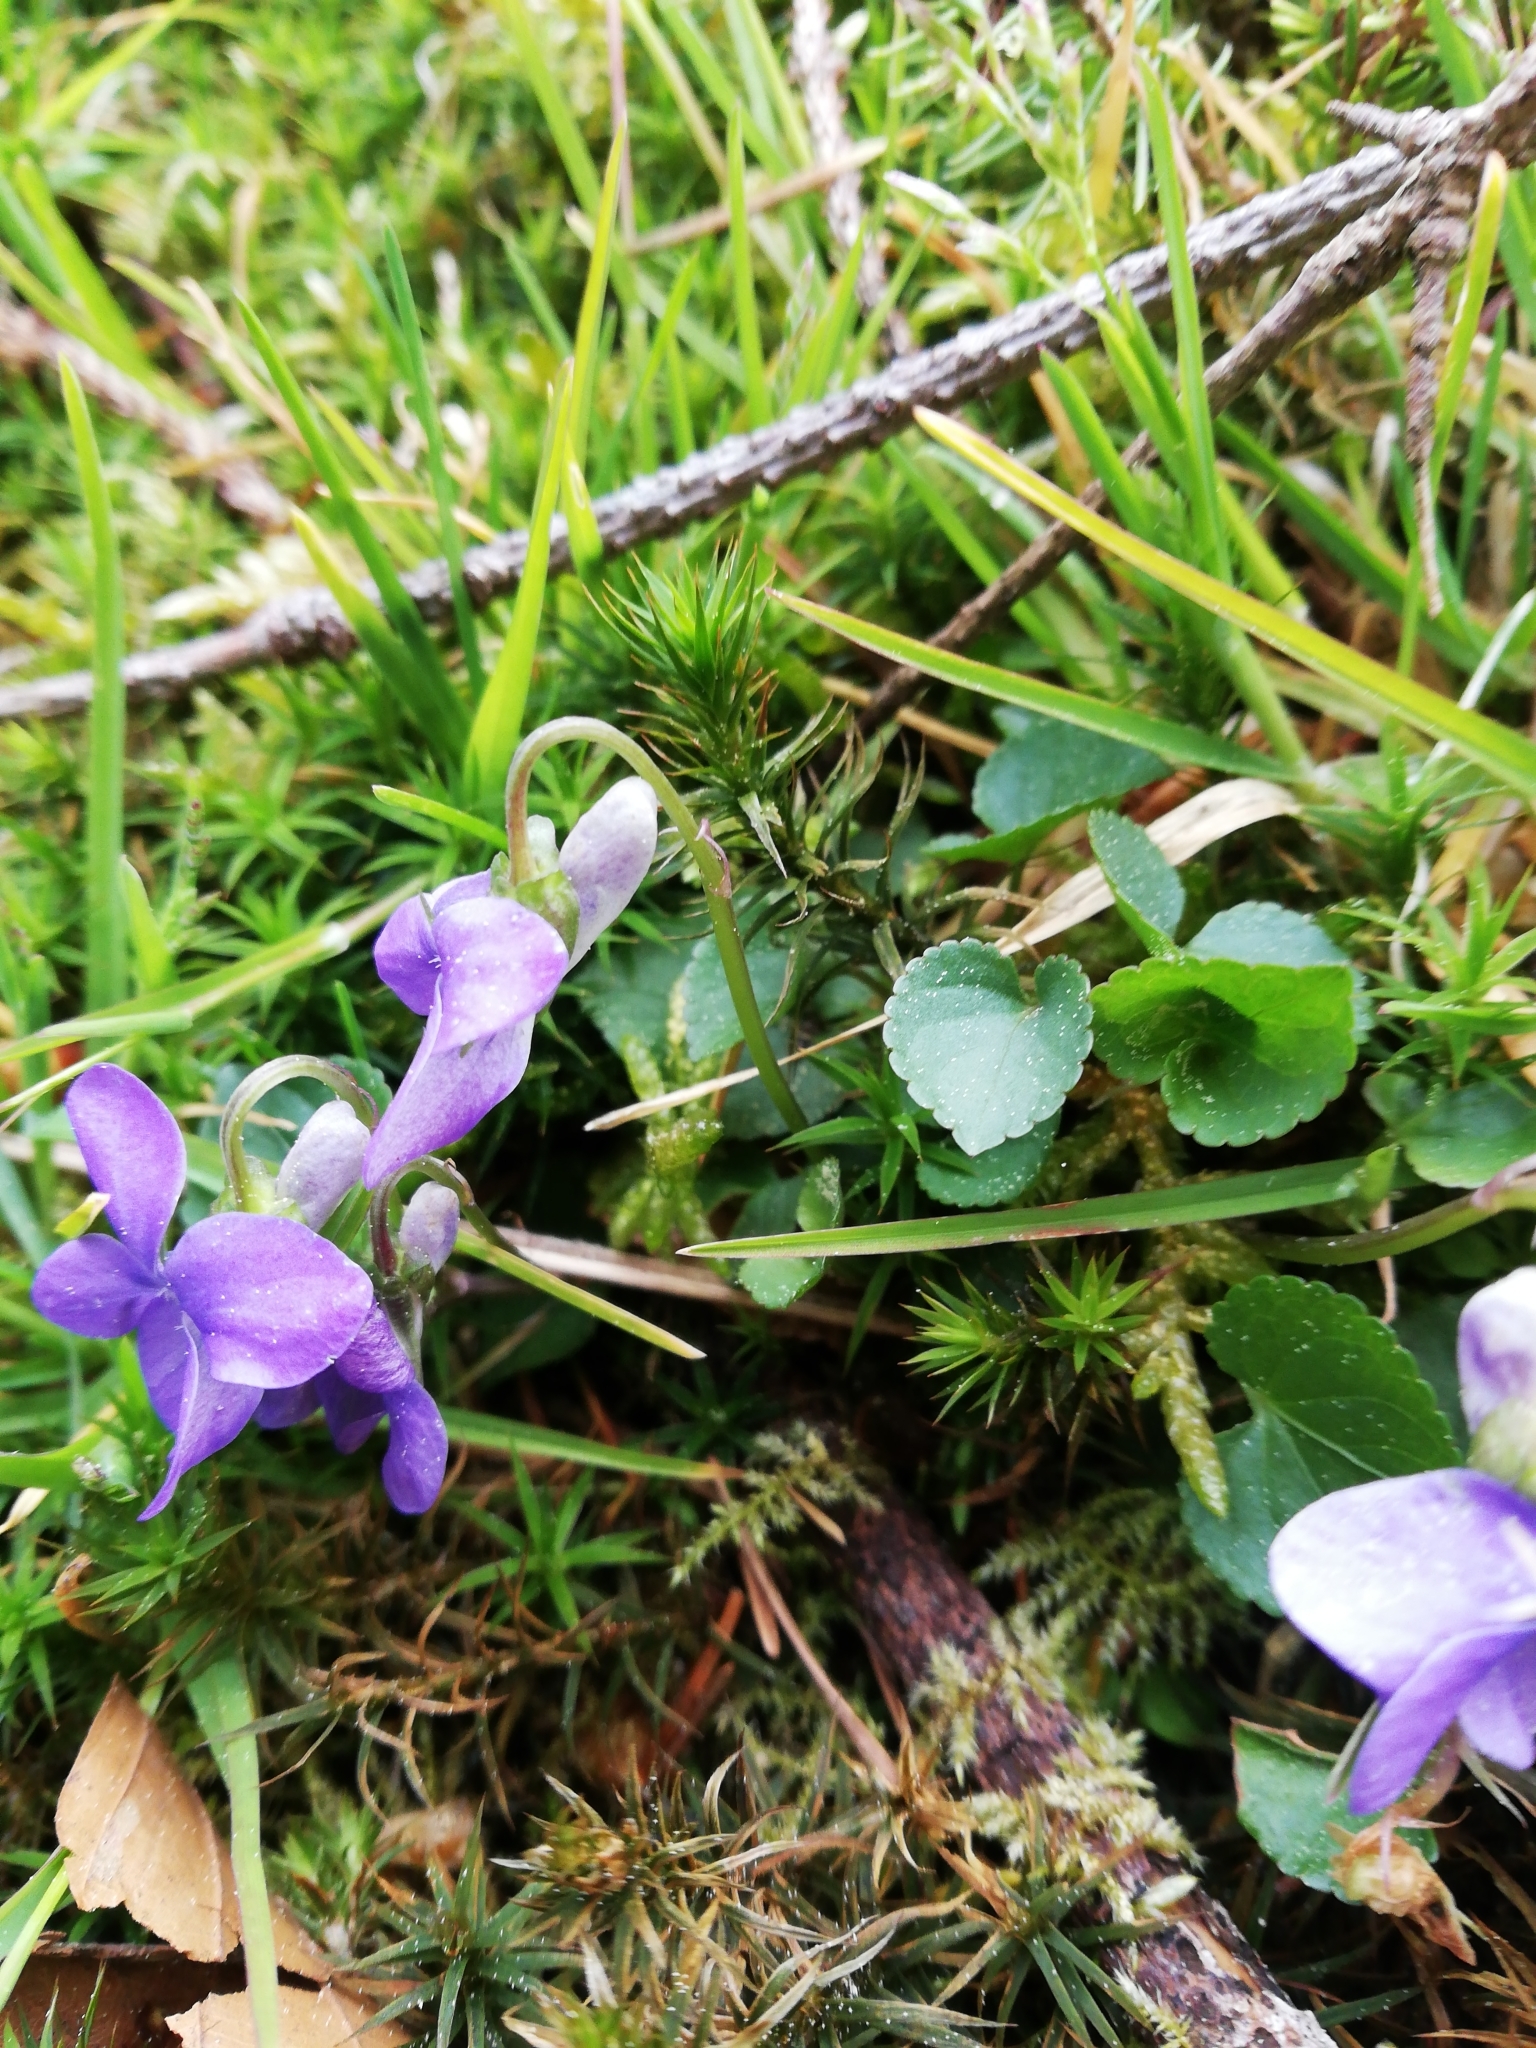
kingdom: Plantae
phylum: Tracheophyta
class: Magnoliopsida
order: Malpighiales
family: Violaceae
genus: Viola
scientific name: Viola riviniana
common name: Common dog-violet
